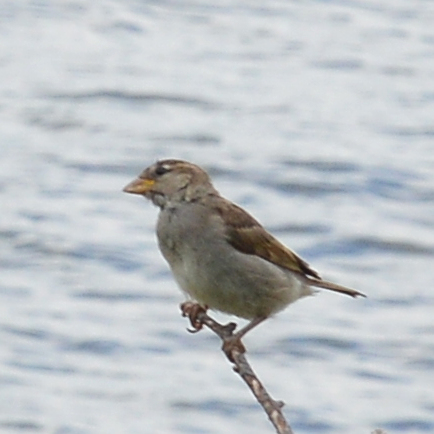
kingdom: Animalia
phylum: Chordata
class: Aves
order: Passeriformes
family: Passeridae
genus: Passer
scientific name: Passer domesticus
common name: House sparrow
